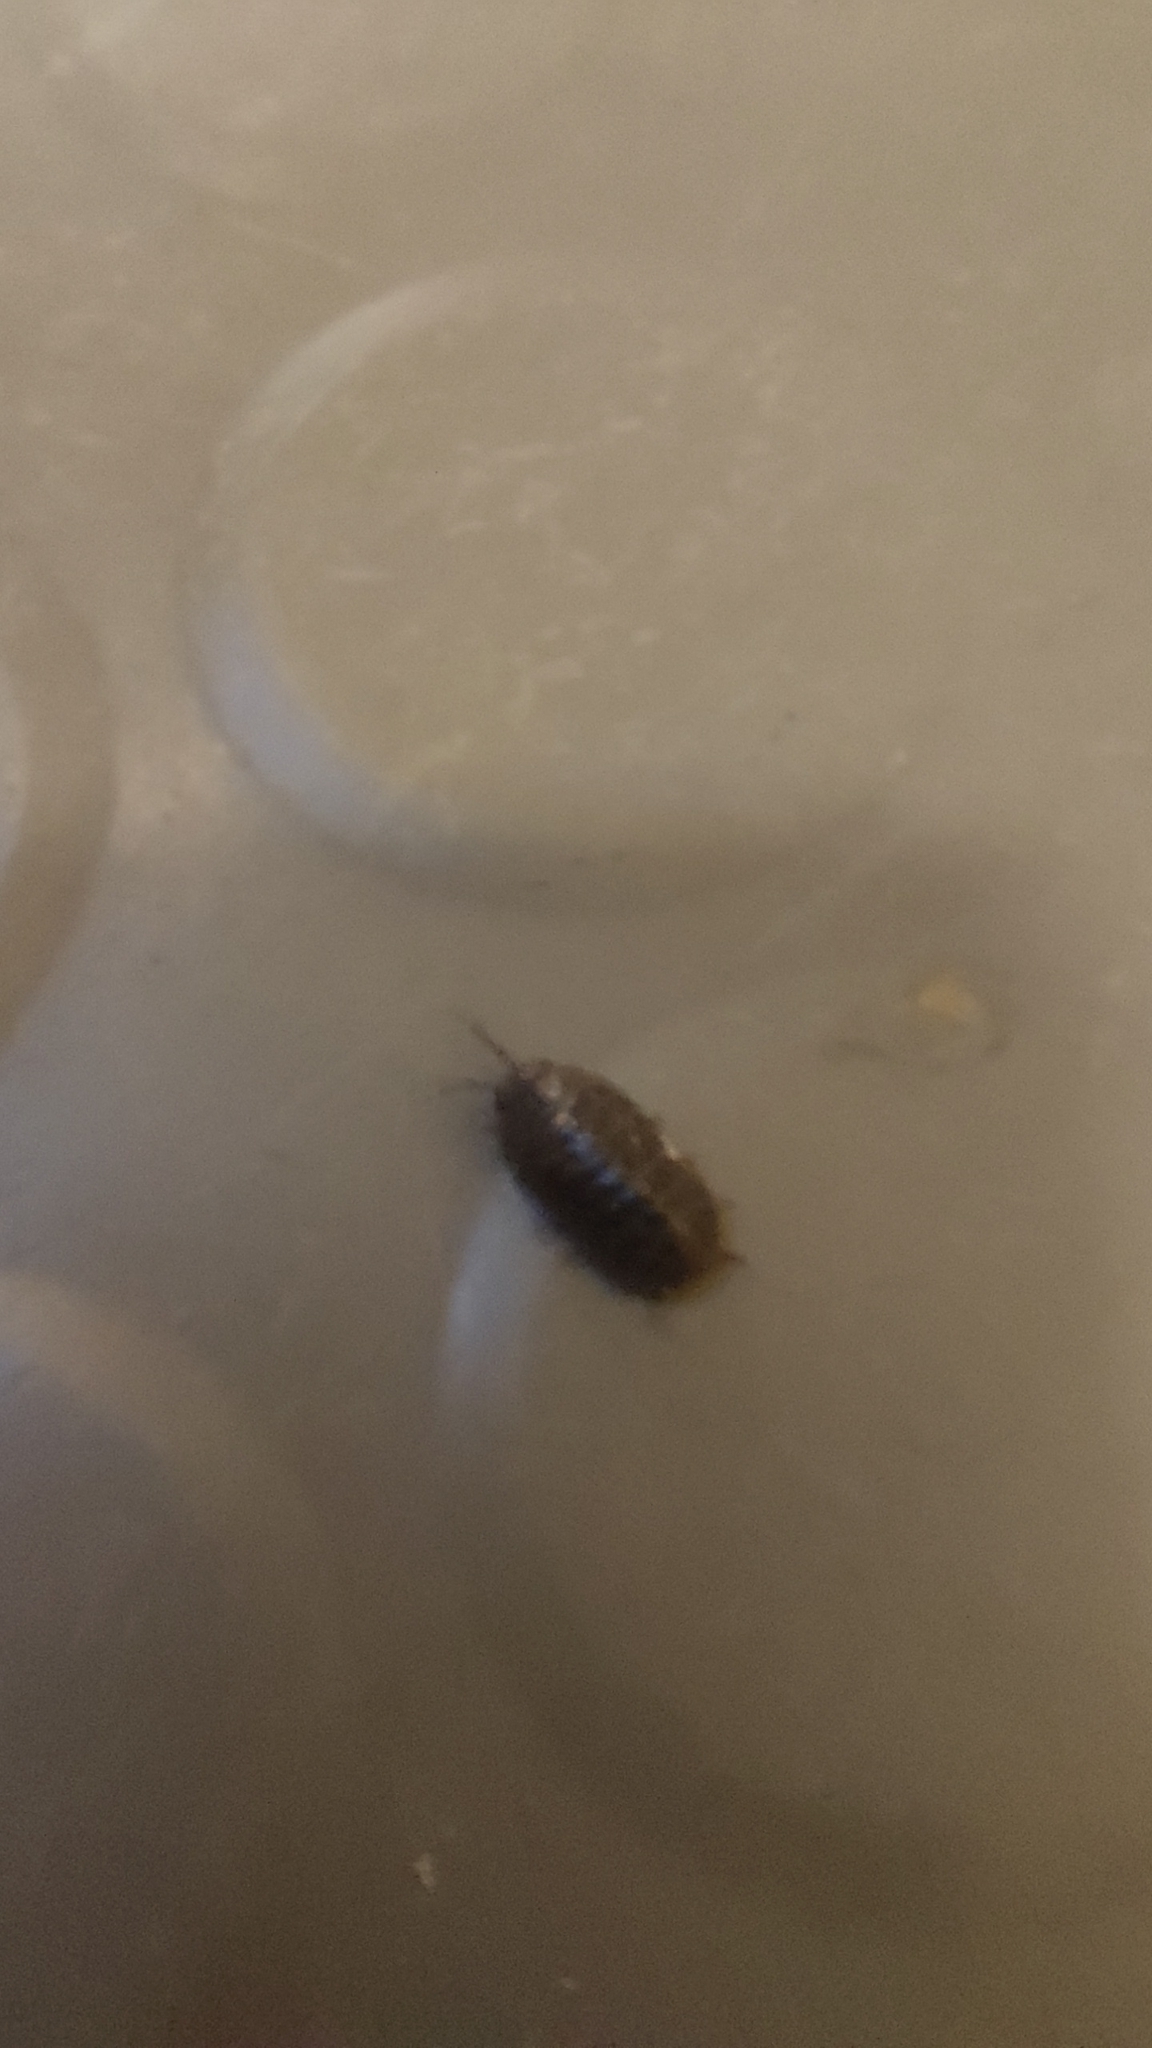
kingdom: Animalia
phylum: Arthropoda
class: Malacostraca
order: Isopoda
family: Armadillidiidae
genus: Armadillidium
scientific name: Armadillidium vulgare
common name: Common pill woodlouse
